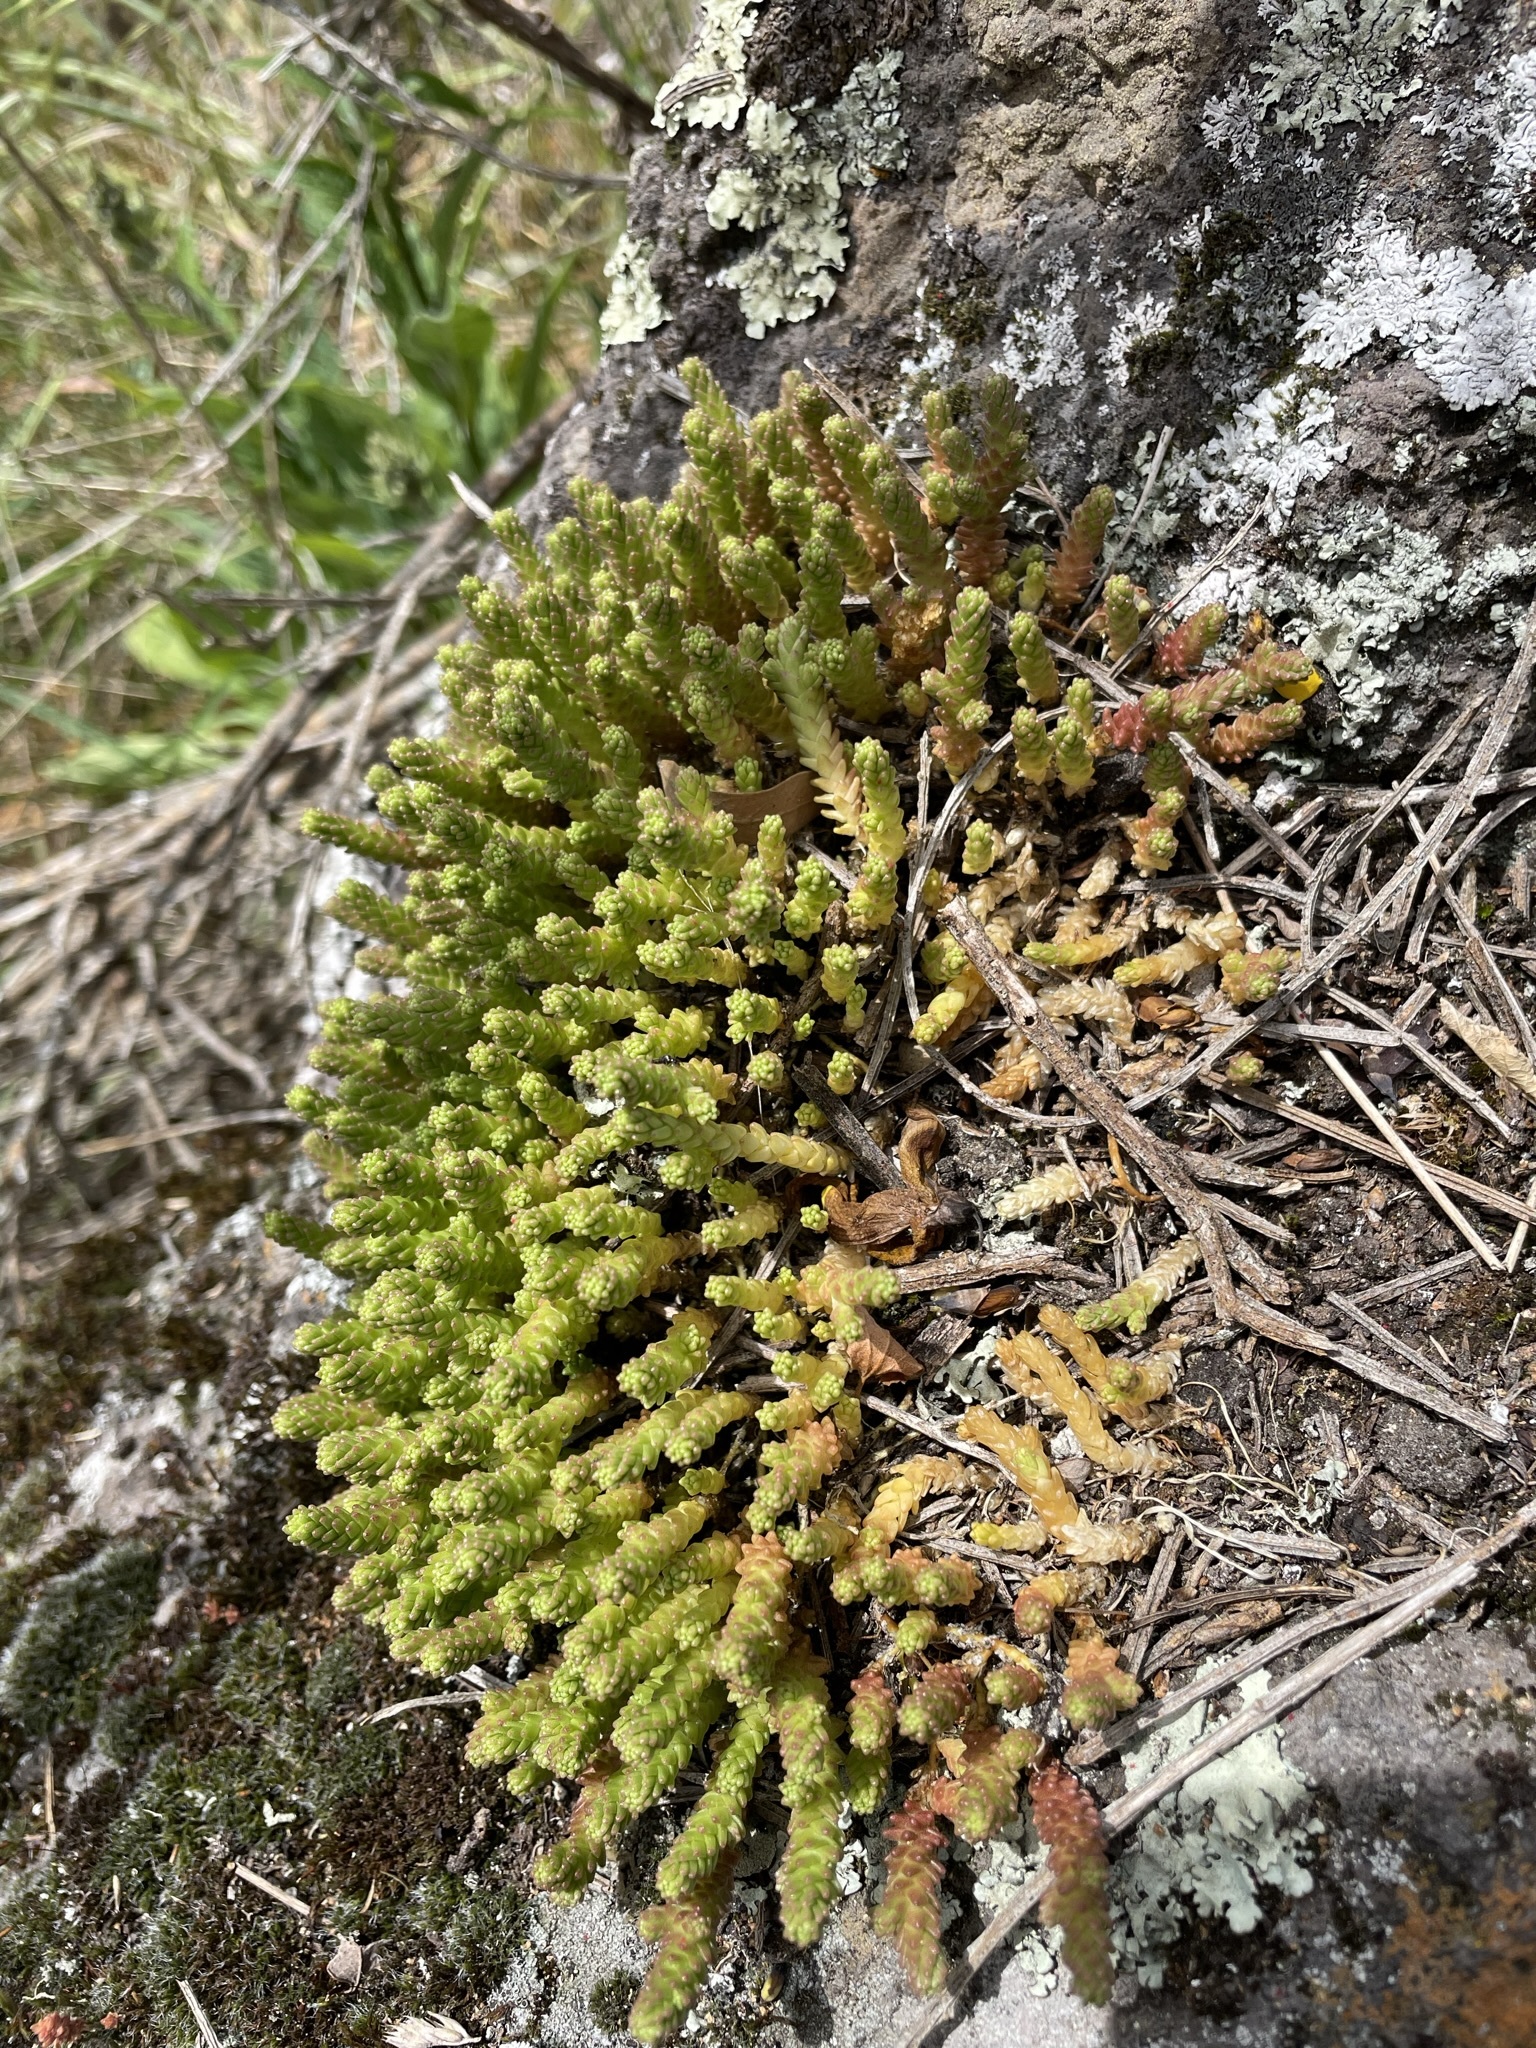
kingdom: Plantae
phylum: Tracheophyta
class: Magnoliopsida
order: Saxifragales
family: Crassulaceae
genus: Sedum
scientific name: Sedum acre
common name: Biting stonecrop
